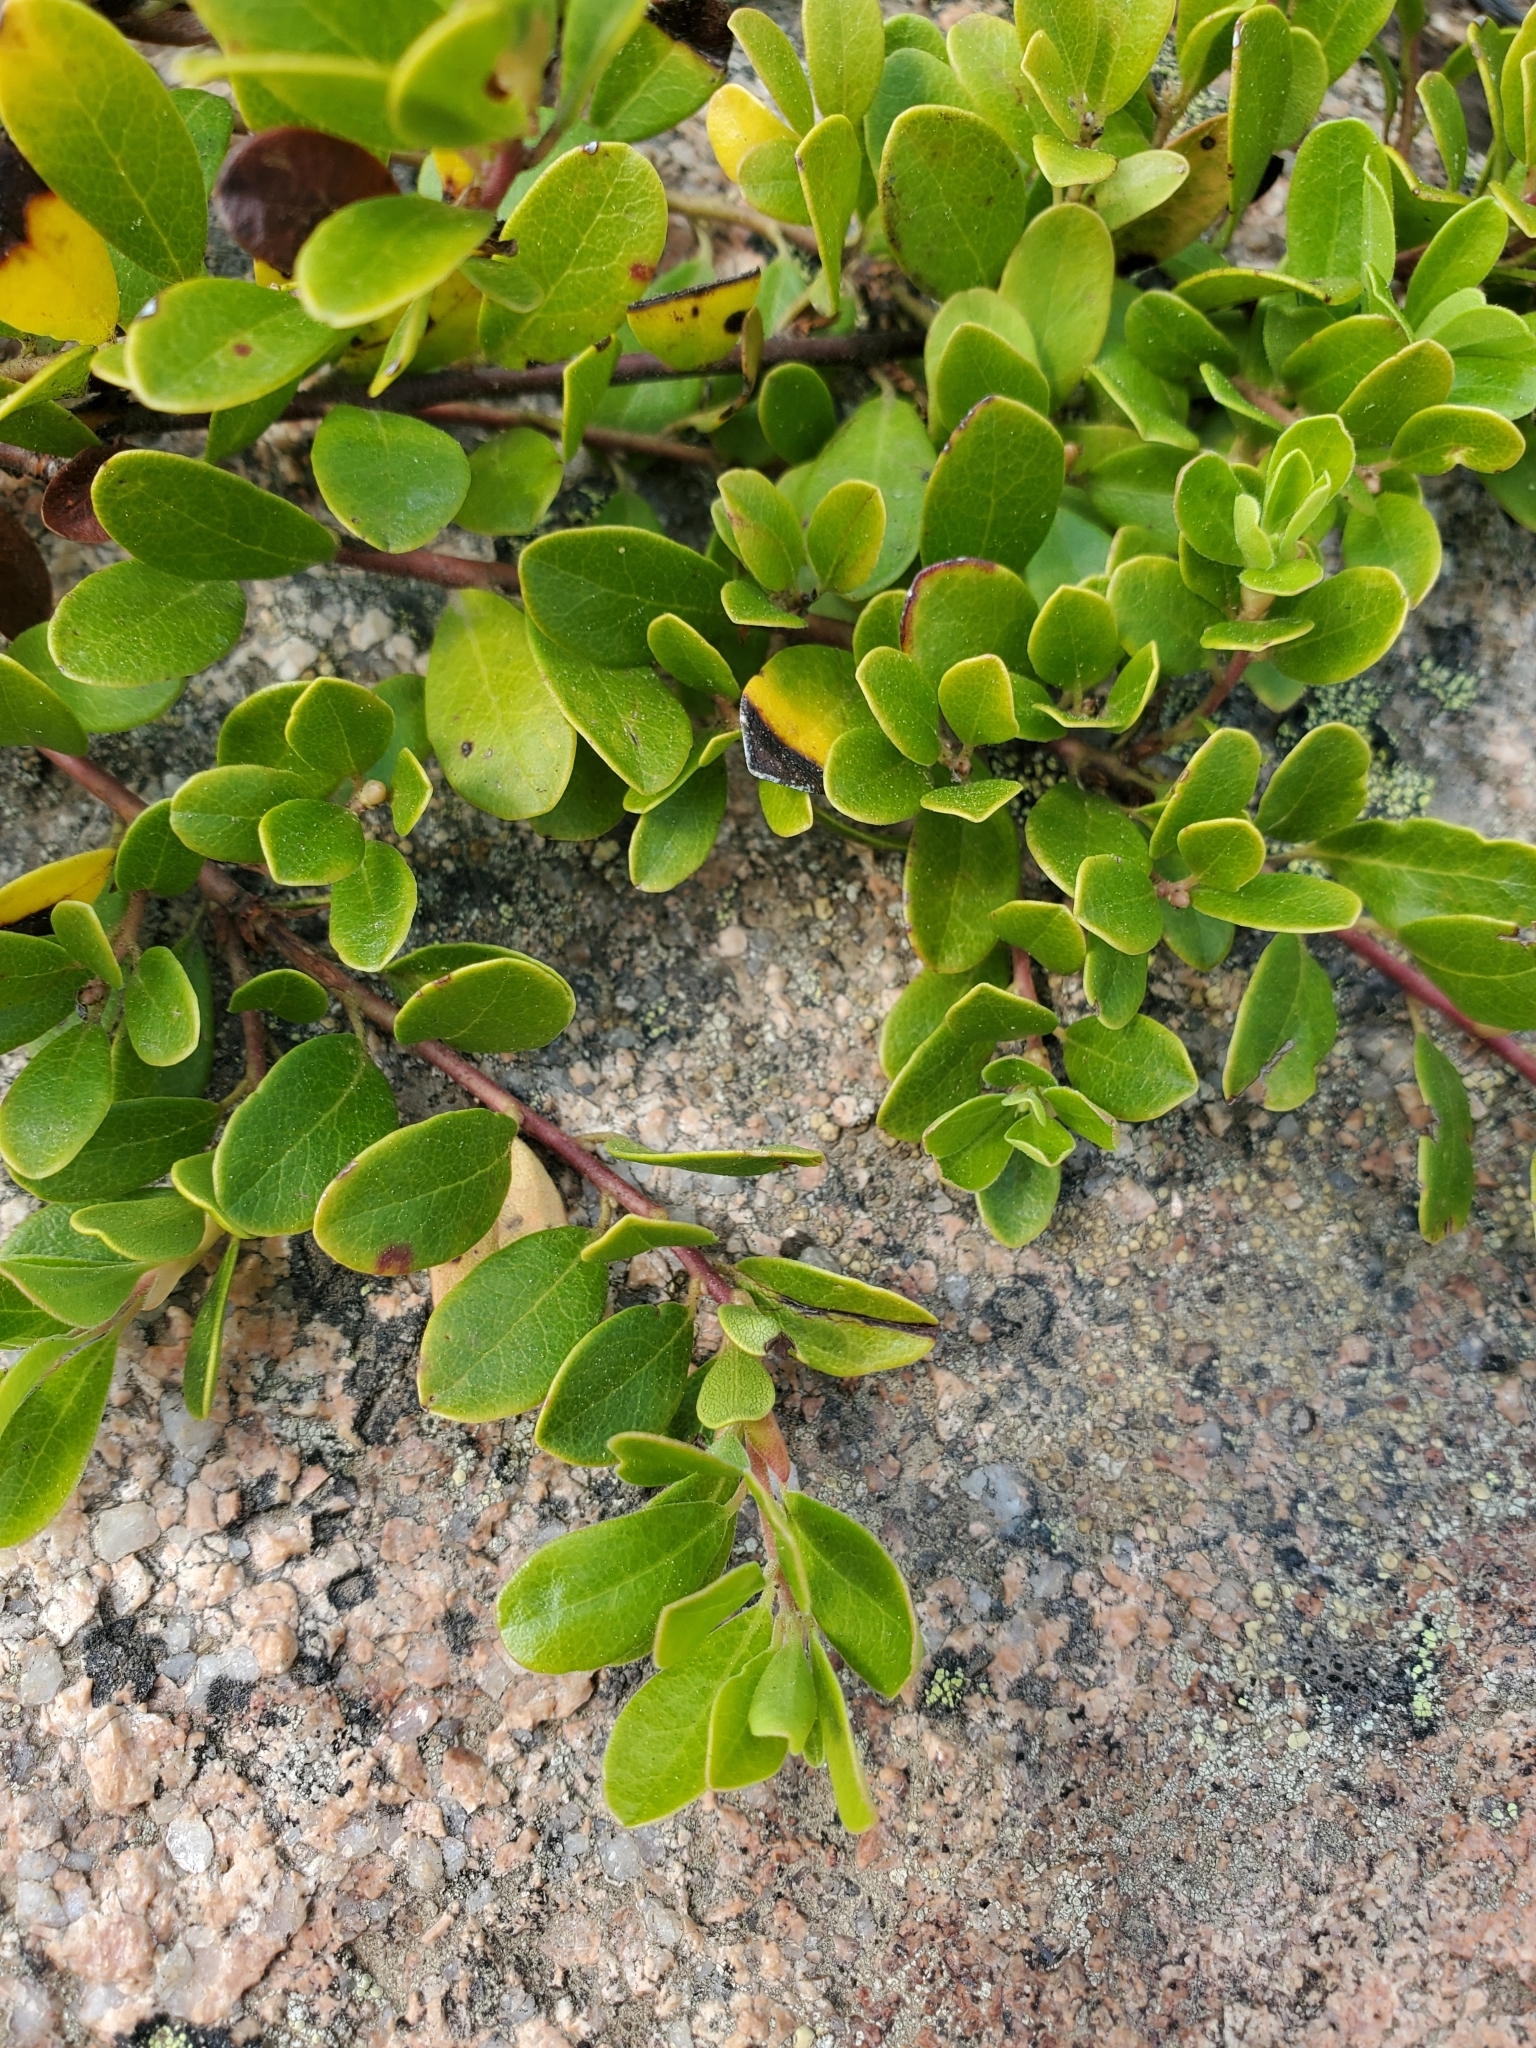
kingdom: Plantae
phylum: Tracheophyta
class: Magnoliopsida
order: Ericales
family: Ericaceae
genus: Arctostaphylos
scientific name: Arctostaphylos uva-ursi
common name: Bearberry
